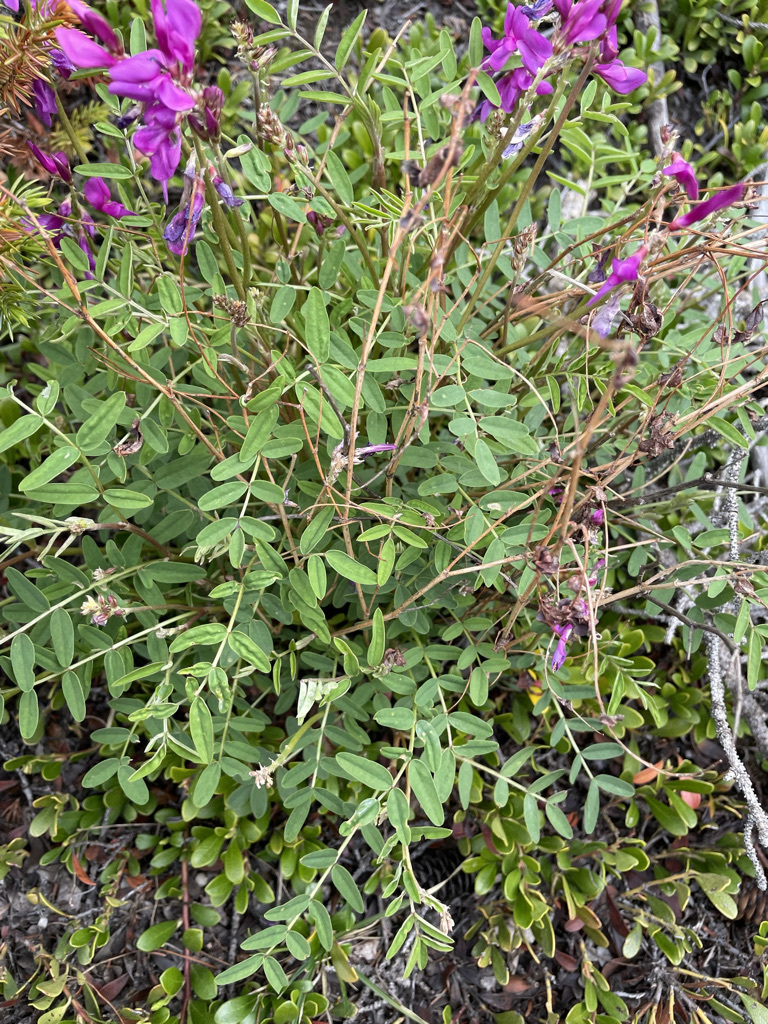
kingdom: Plantae
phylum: Tracheophyta
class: Magnoliopsida
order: Fabales
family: Fabaceae
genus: Hedysarum
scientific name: Hedysarum boreale
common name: Northern sweet-vetch
